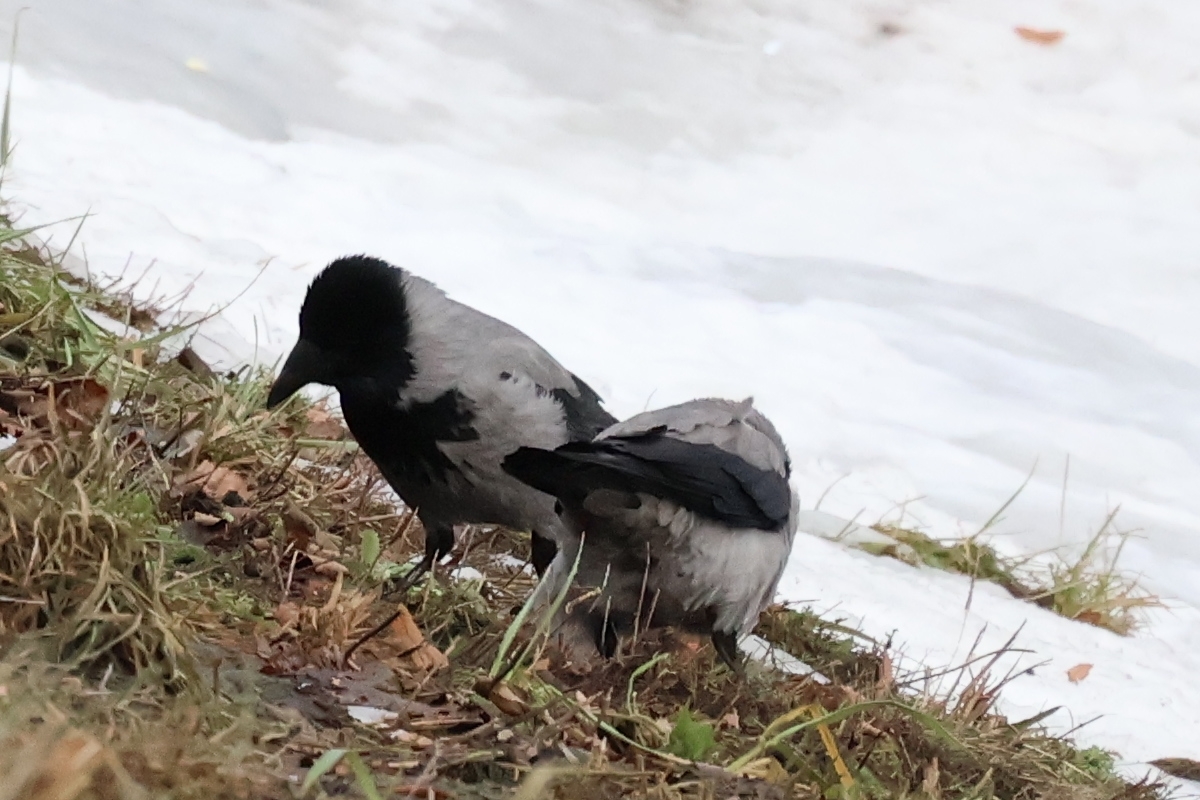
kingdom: Animalia
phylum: Chordata
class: Aves
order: Passeriformes
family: Corvidae
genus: Corvus
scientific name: Corvus cornix
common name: Hooded crow
